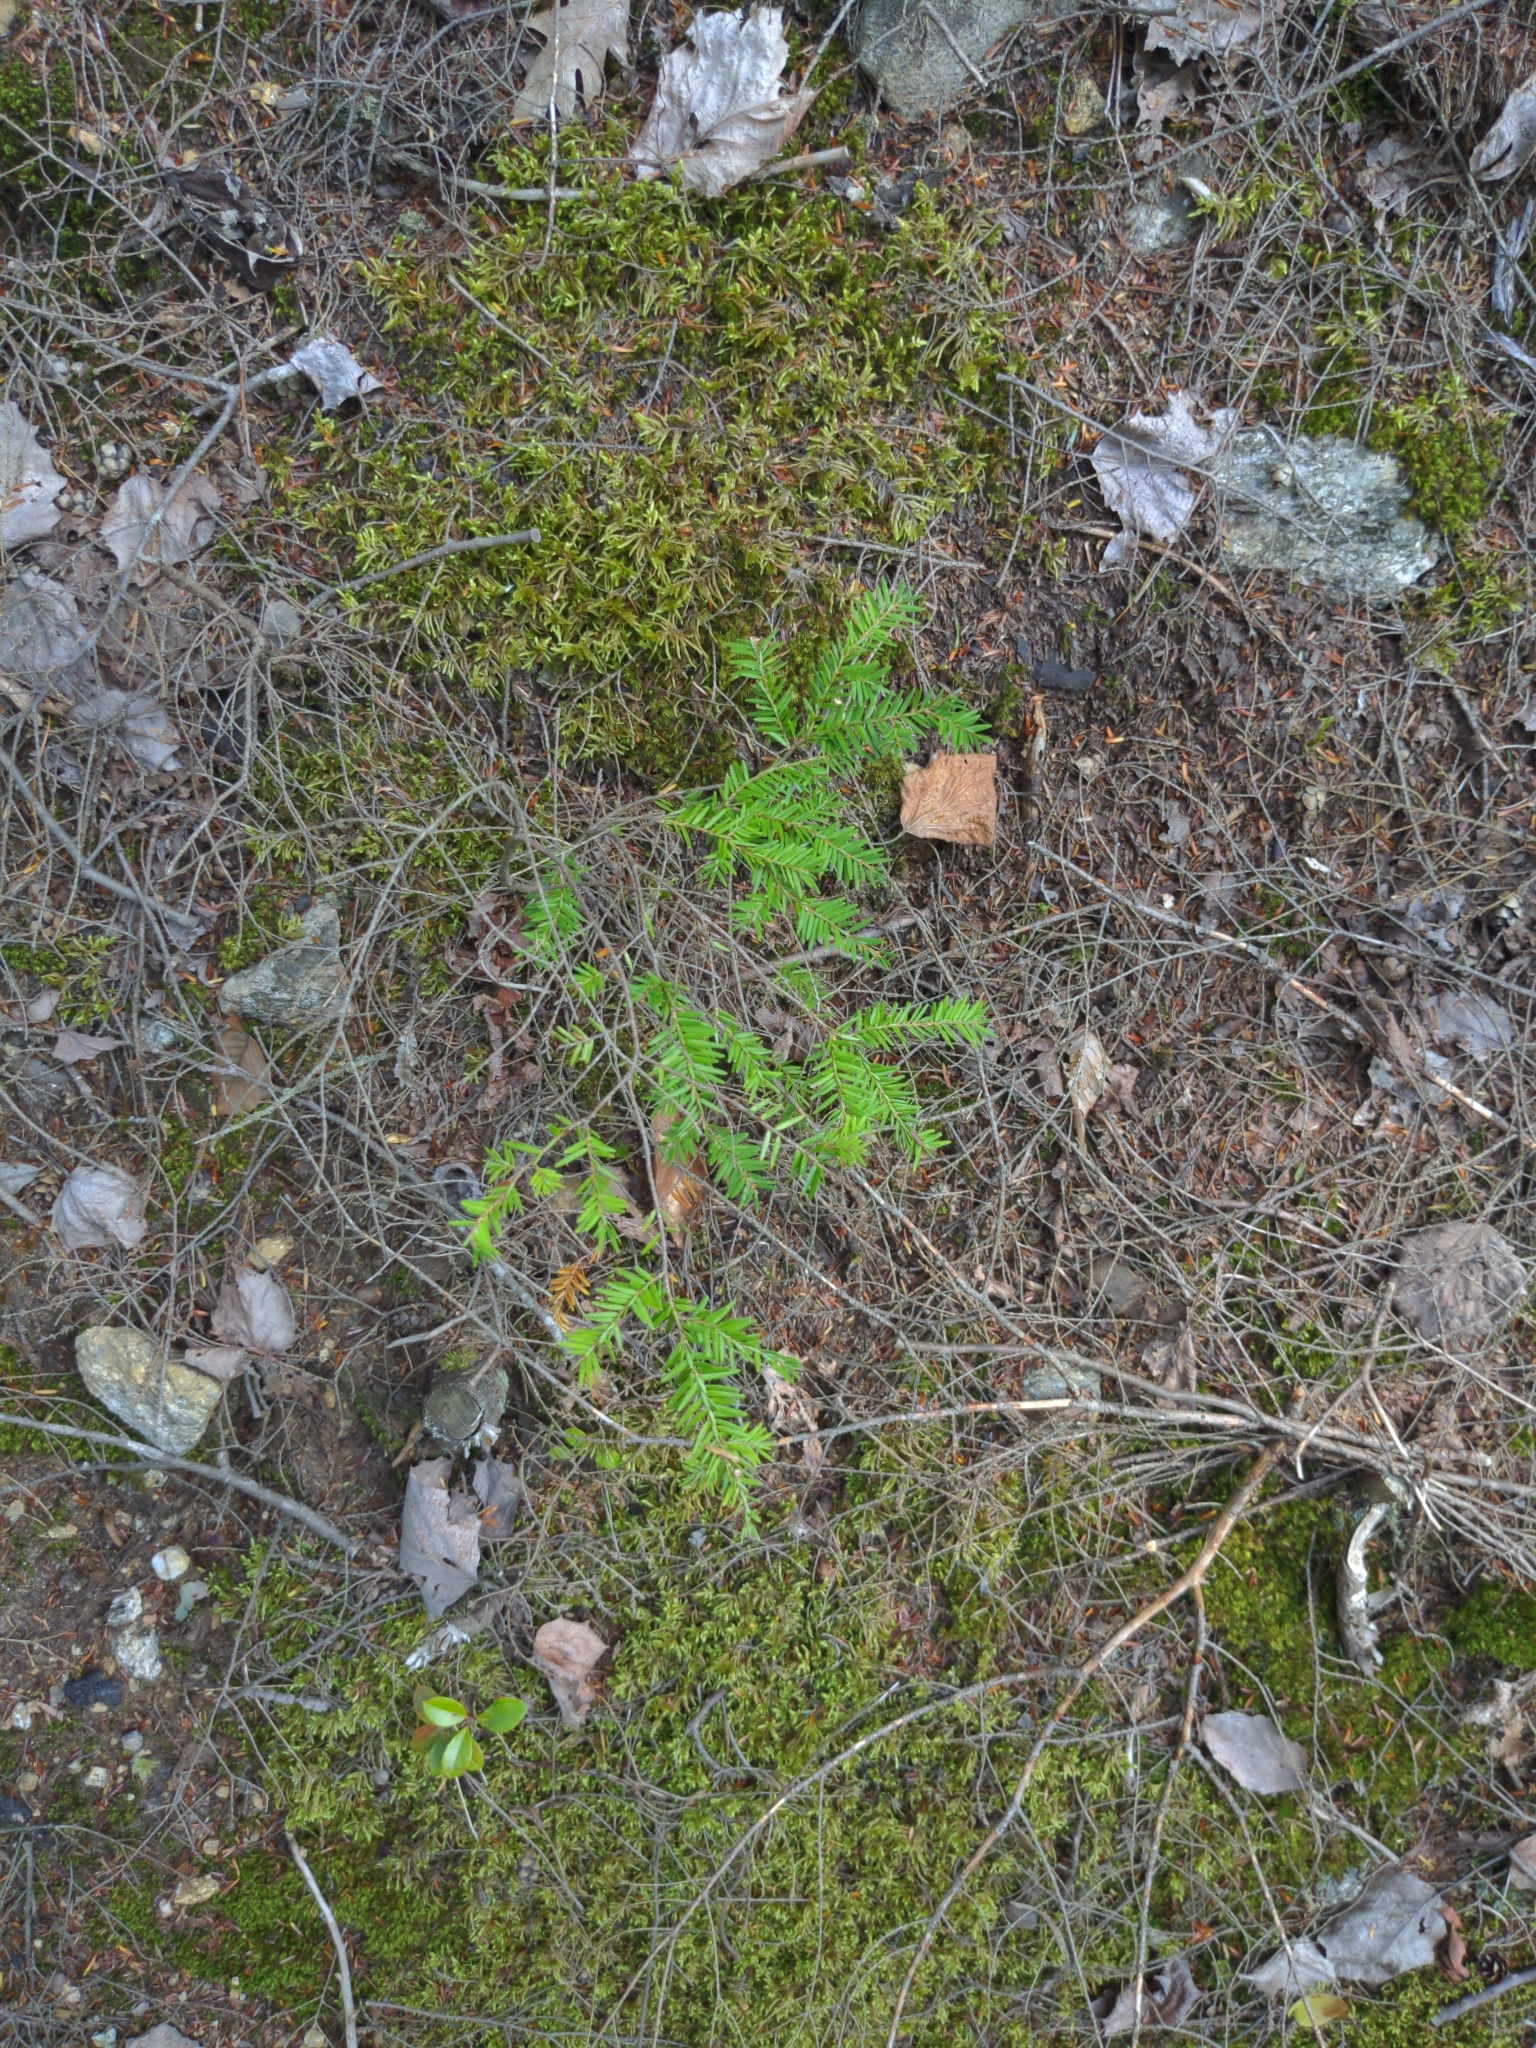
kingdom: Plantae
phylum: Tracheophyta
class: Pinopsida
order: Pinales
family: Pinaceae
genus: Tsuga
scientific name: Tsuga canadensis
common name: Eastern hemlock
